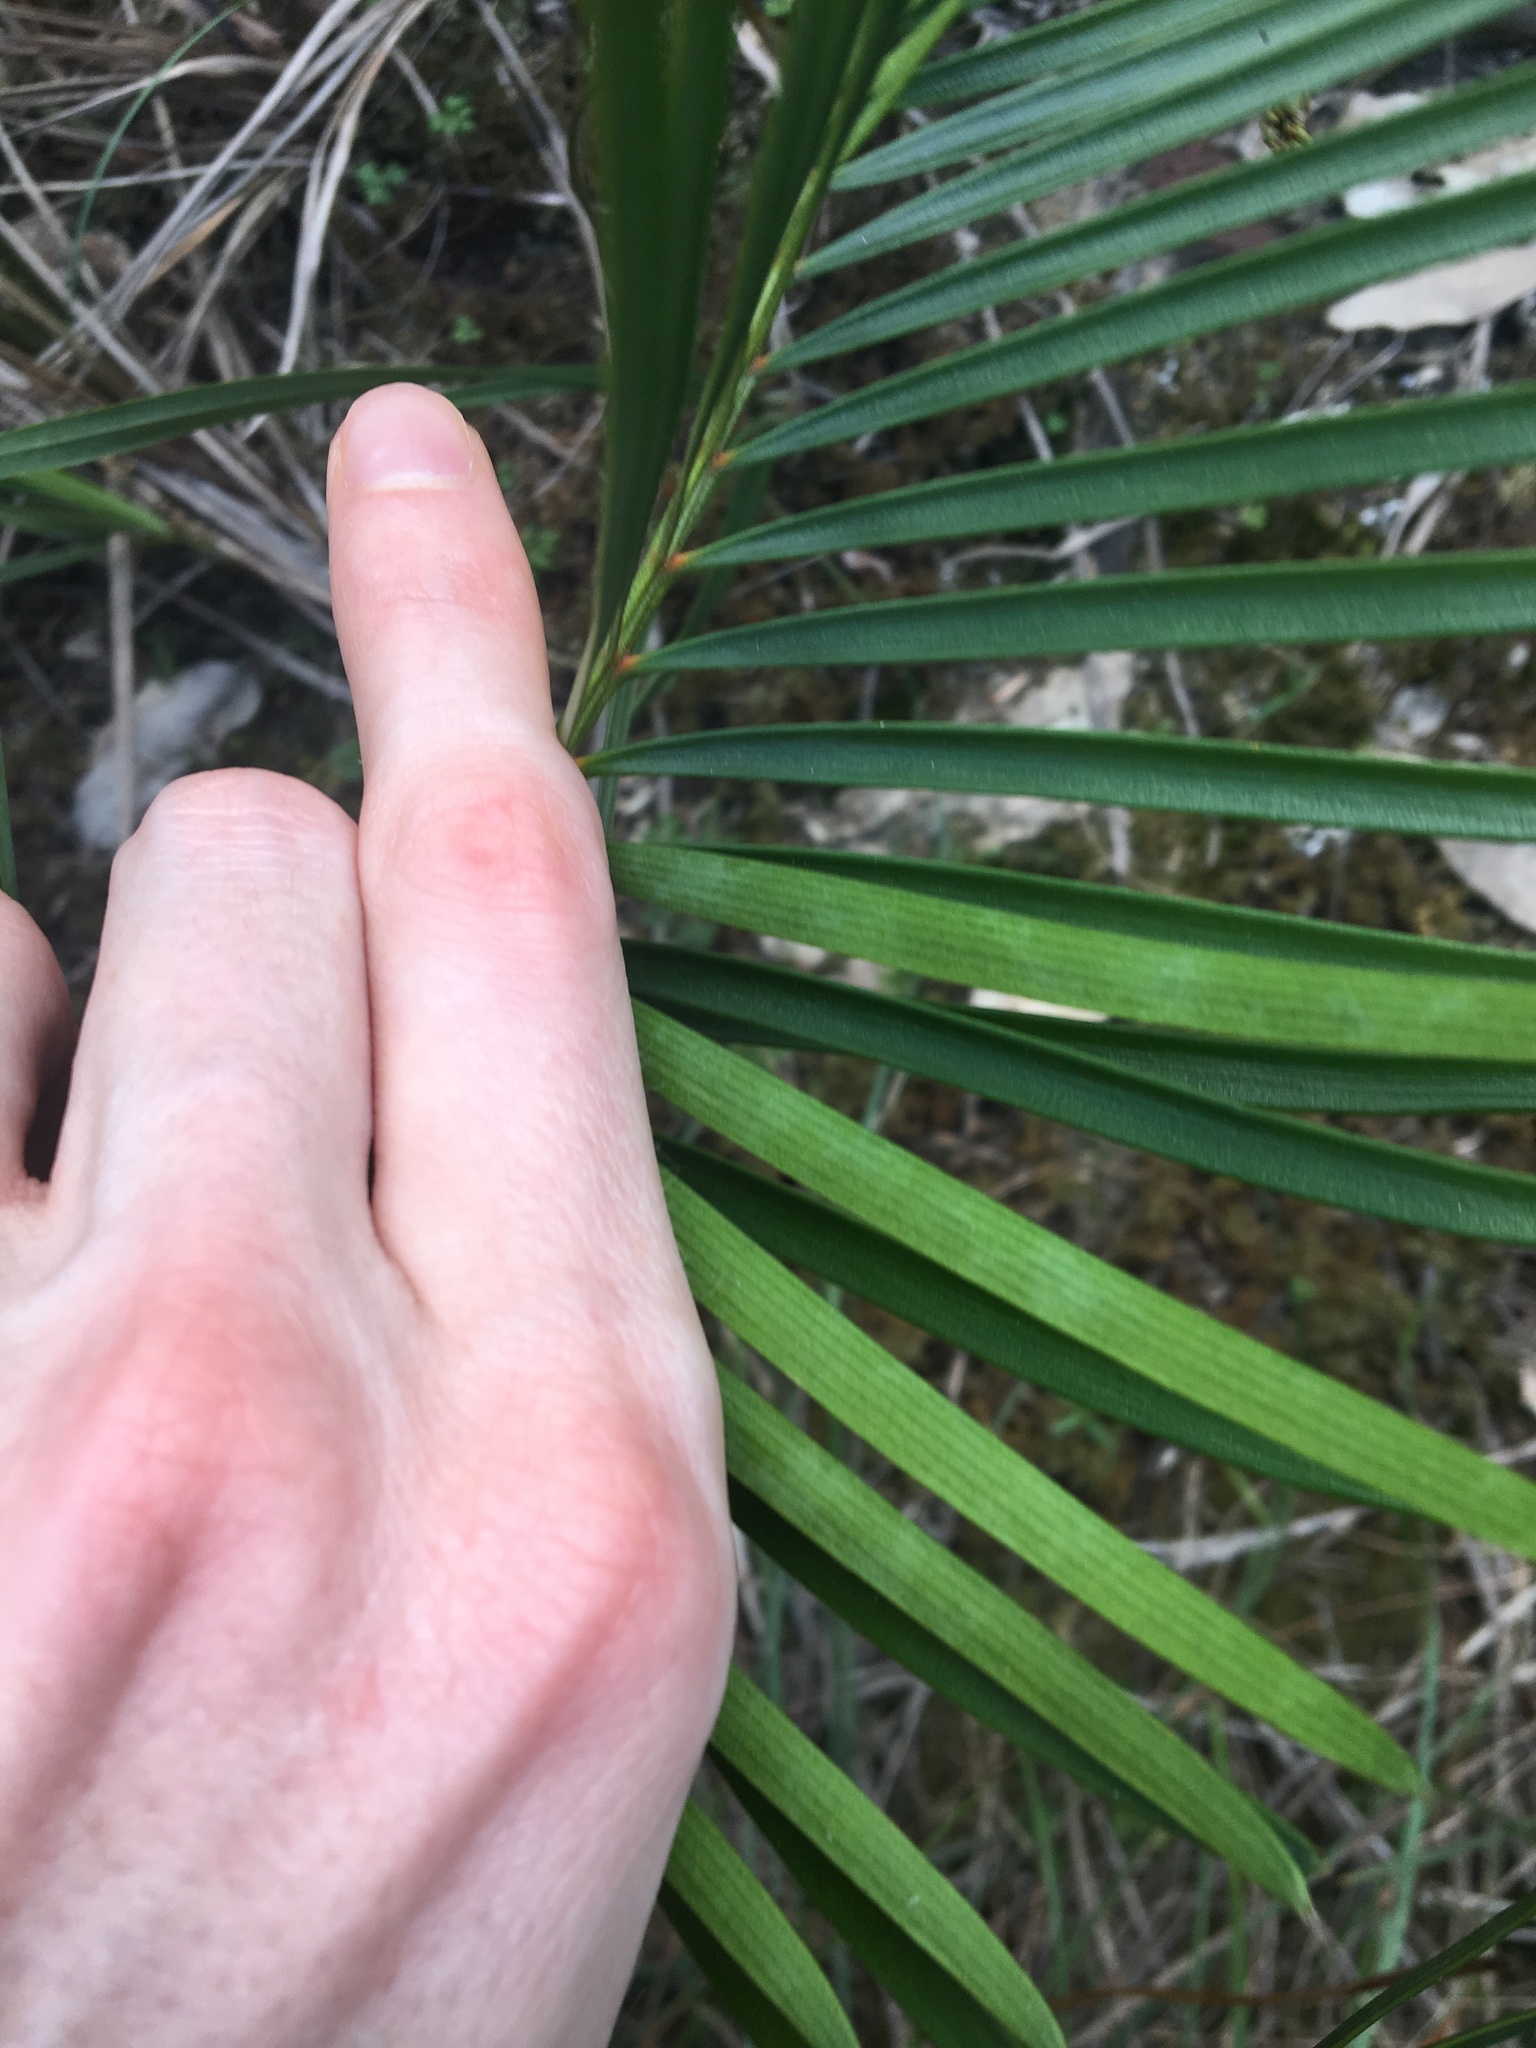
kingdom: Plantae
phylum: Tracheophyta
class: Cycadopsida
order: Cycadales
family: Zamiaceae
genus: Macrozamia
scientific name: Macrozamia spiralis
